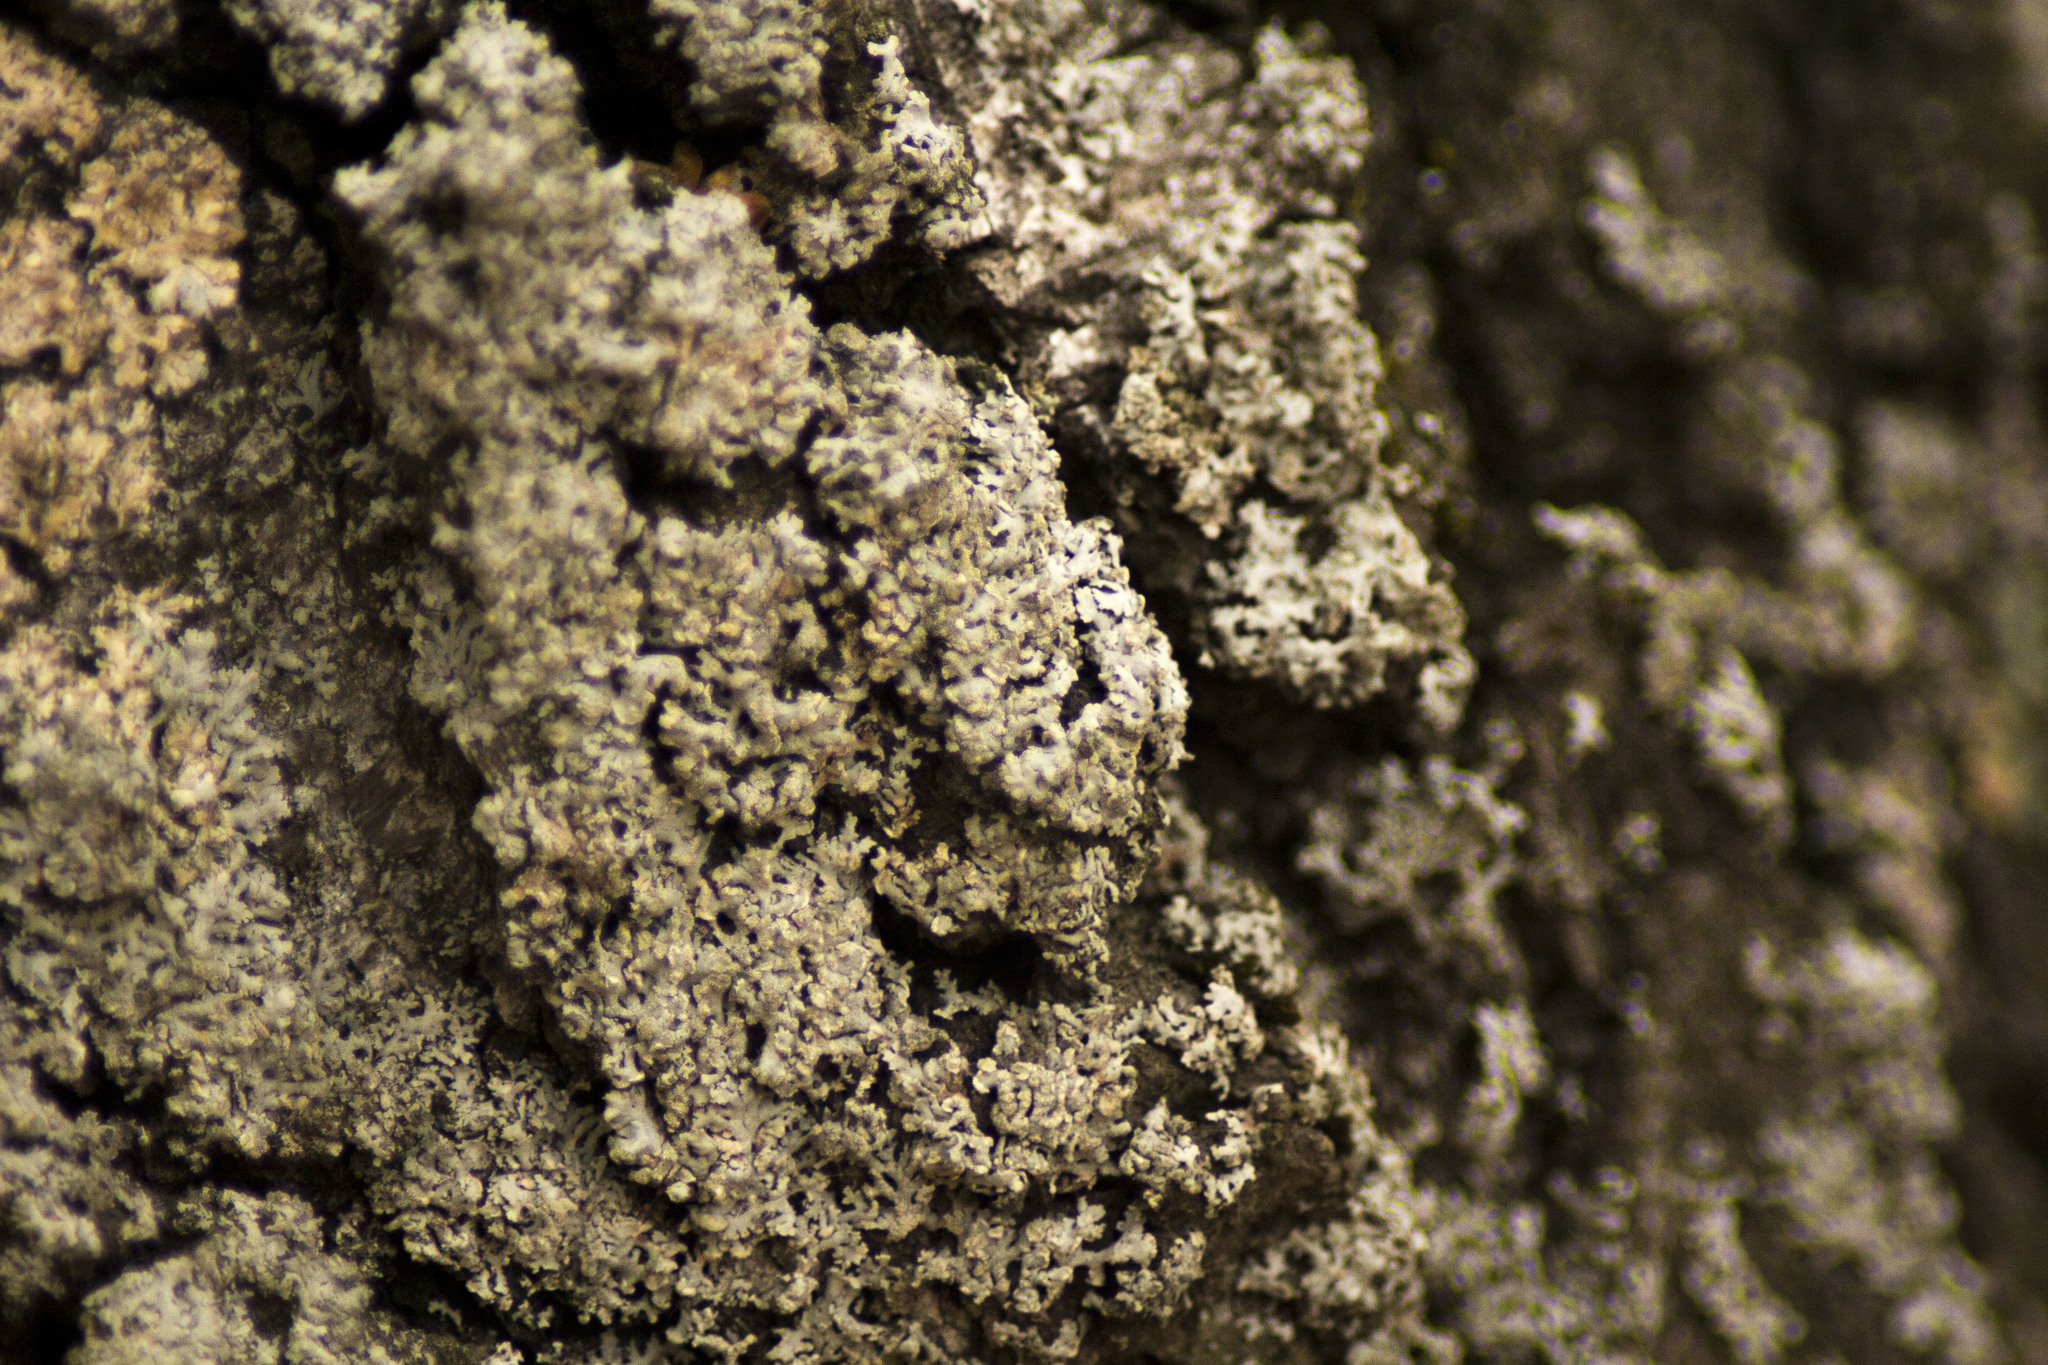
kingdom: Fungi
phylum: Ascomycota
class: Candelariomycetes
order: Candelariales
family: Candelariaceae
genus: Candelaria
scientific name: Candelaria concolor
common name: Candleflame lichen
